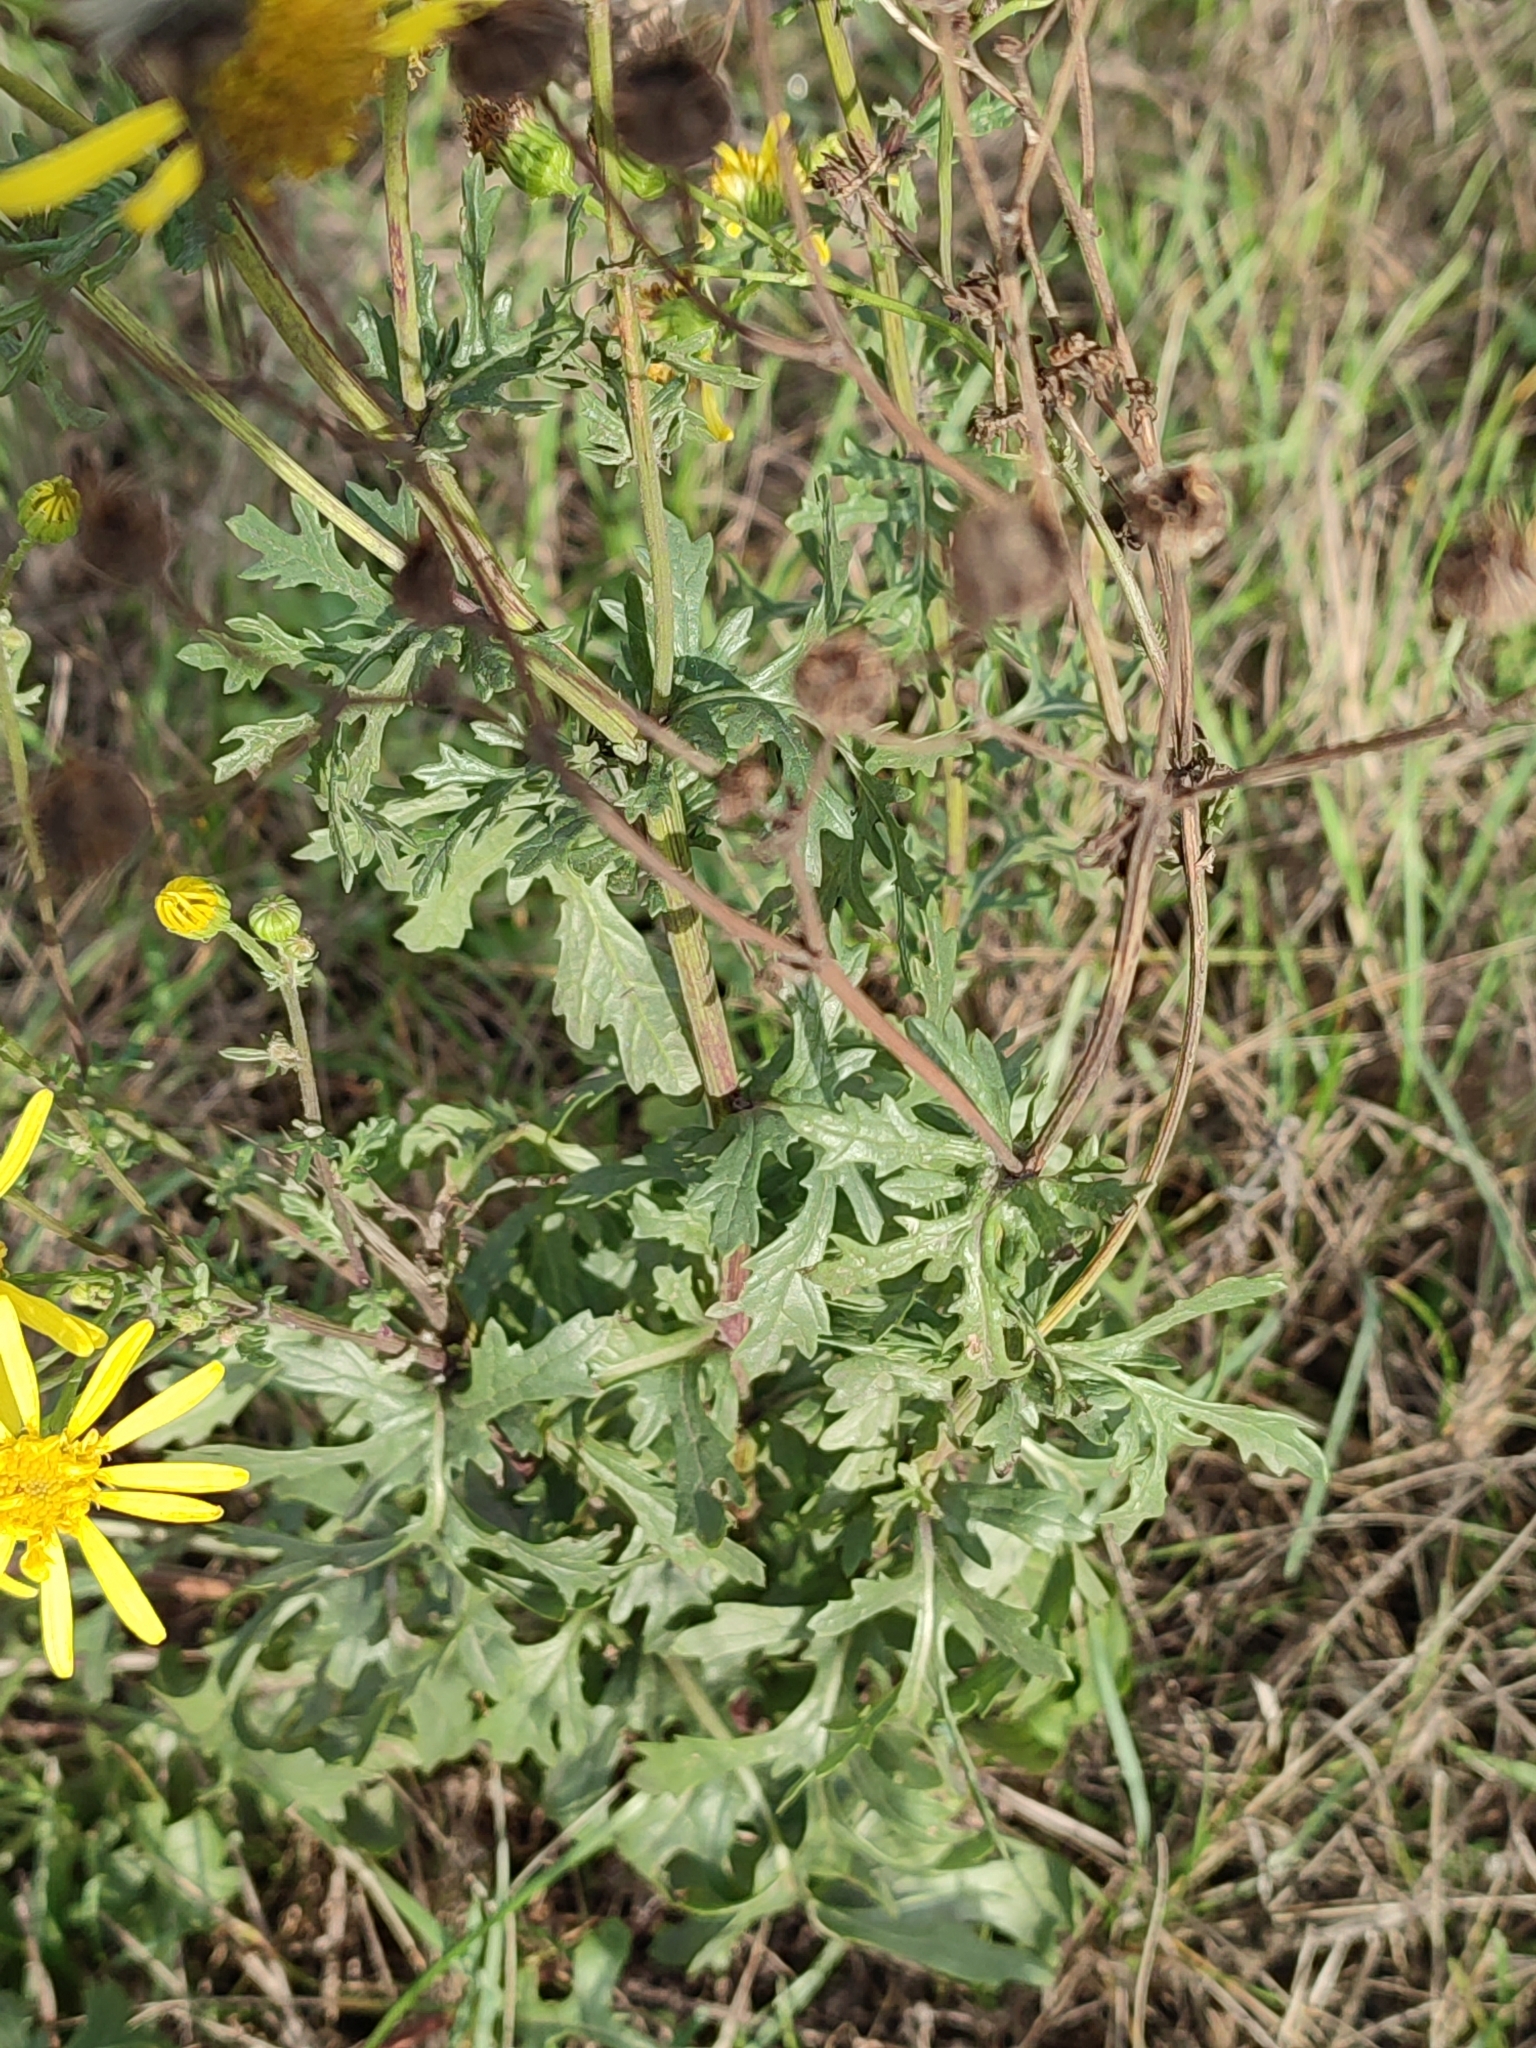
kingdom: Plantae
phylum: Tracheophyta
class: Magnoliopsida
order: Asterales
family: Asteraceae
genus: Jacobaea
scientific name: Jacobaea vulgaris
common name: Stinking willie
